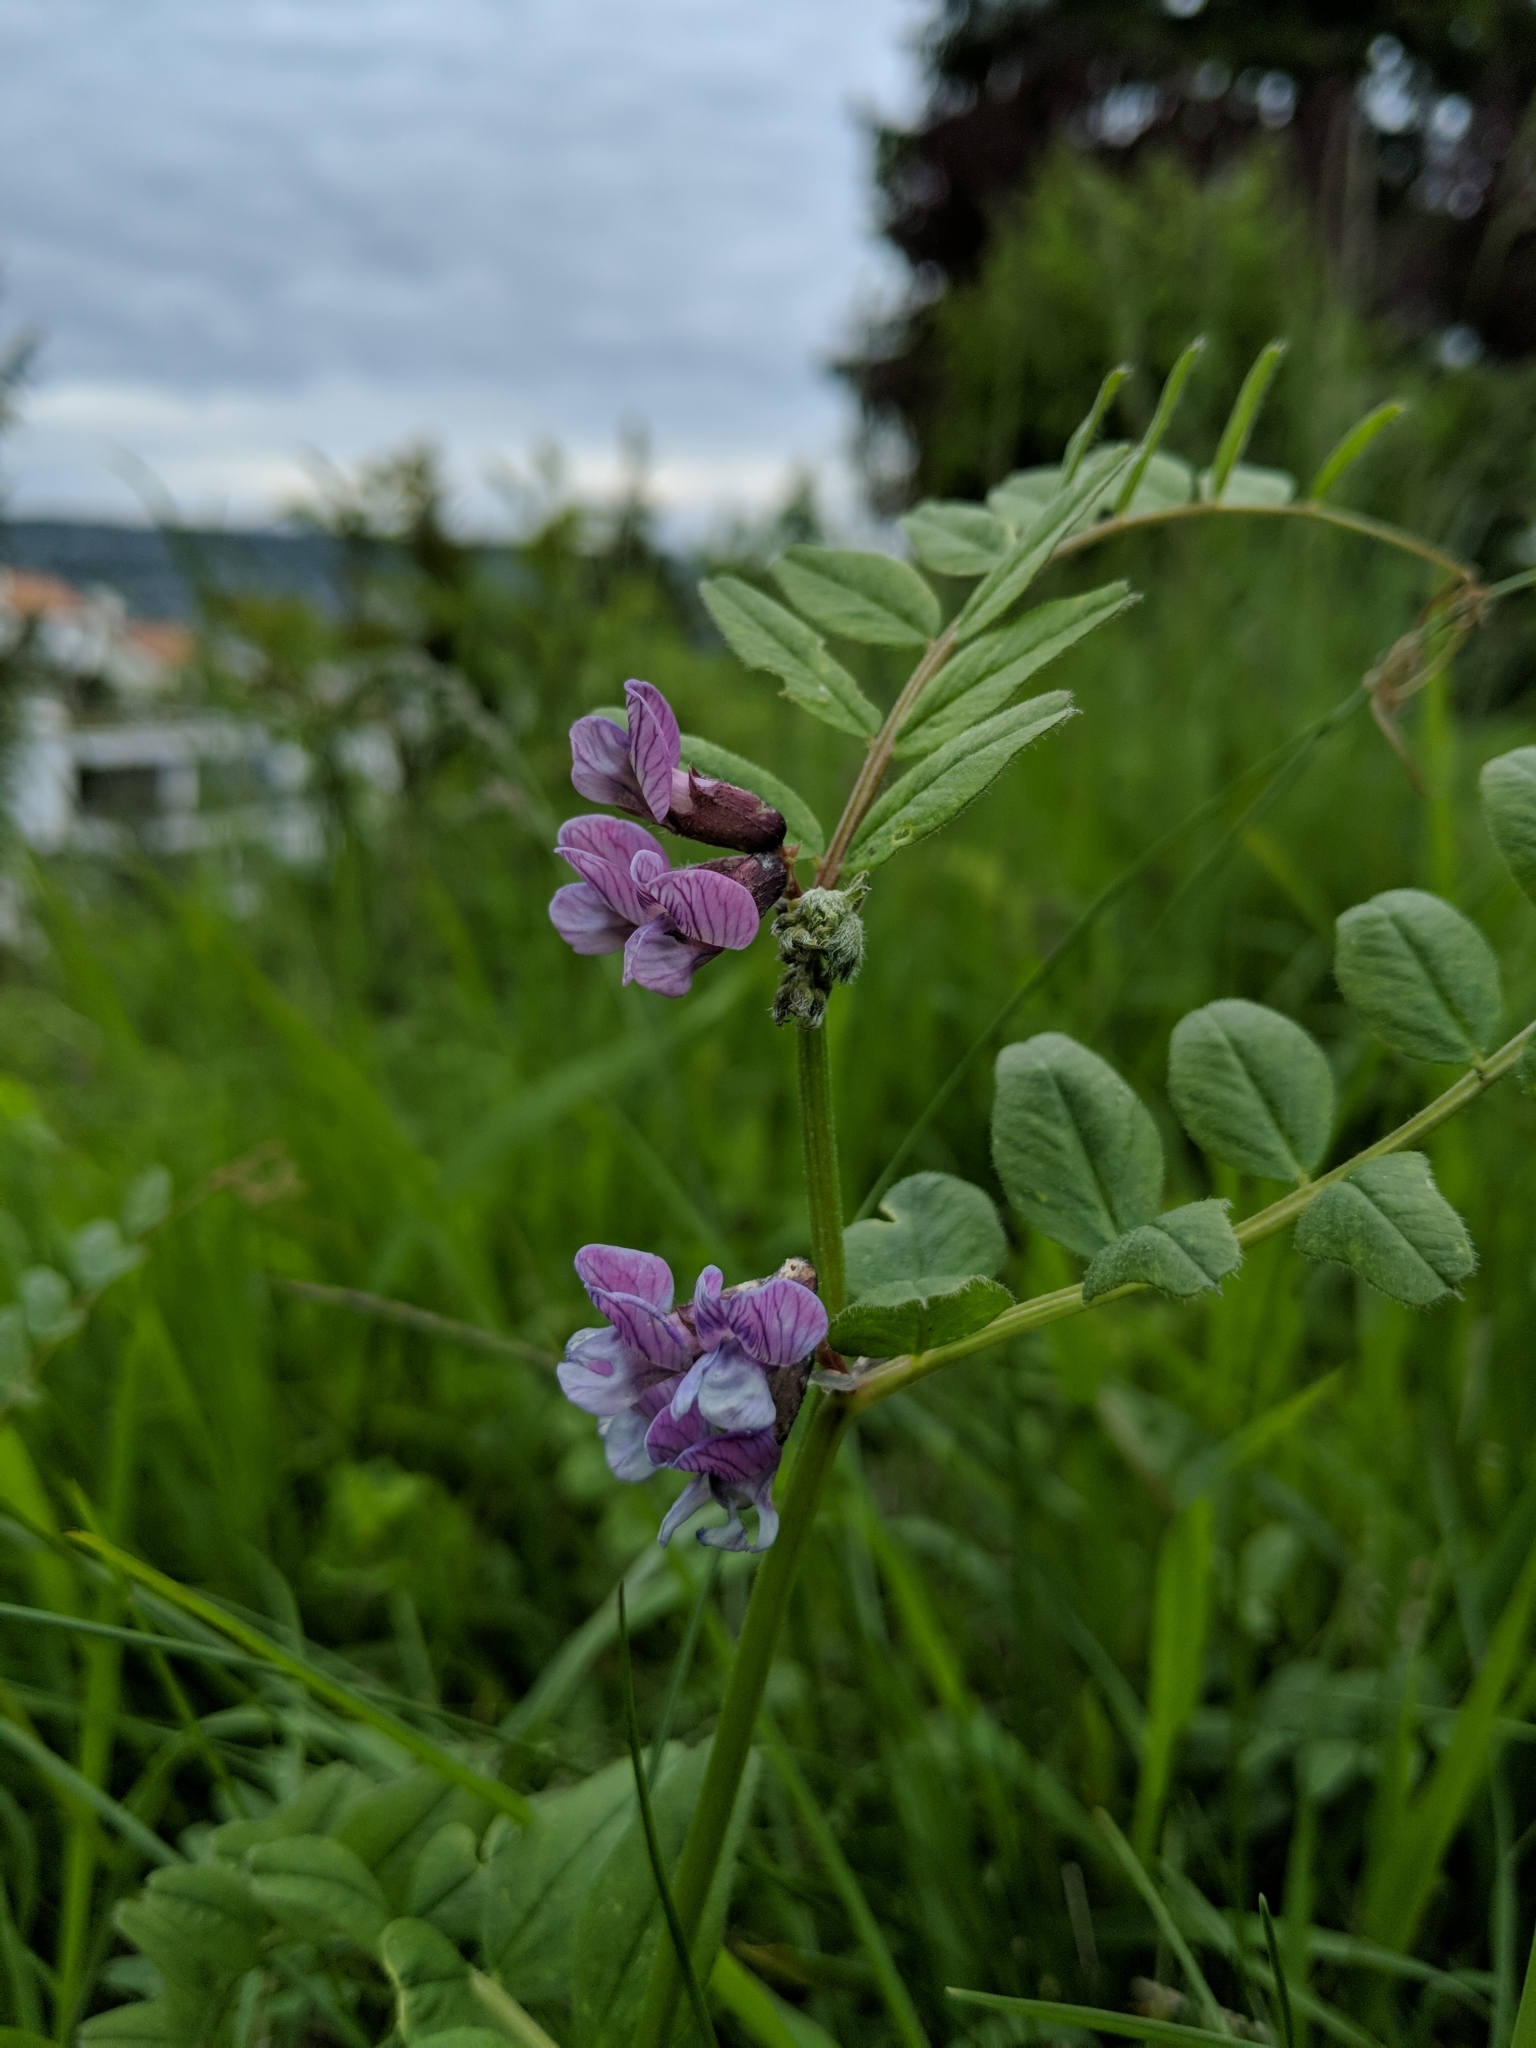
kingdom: Plantae
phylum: Tracheophyta
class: Magnoliopsida
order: Fabales
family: Fabaceae
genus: Vicia
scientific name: Vicia sepium
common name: Bush vetch
